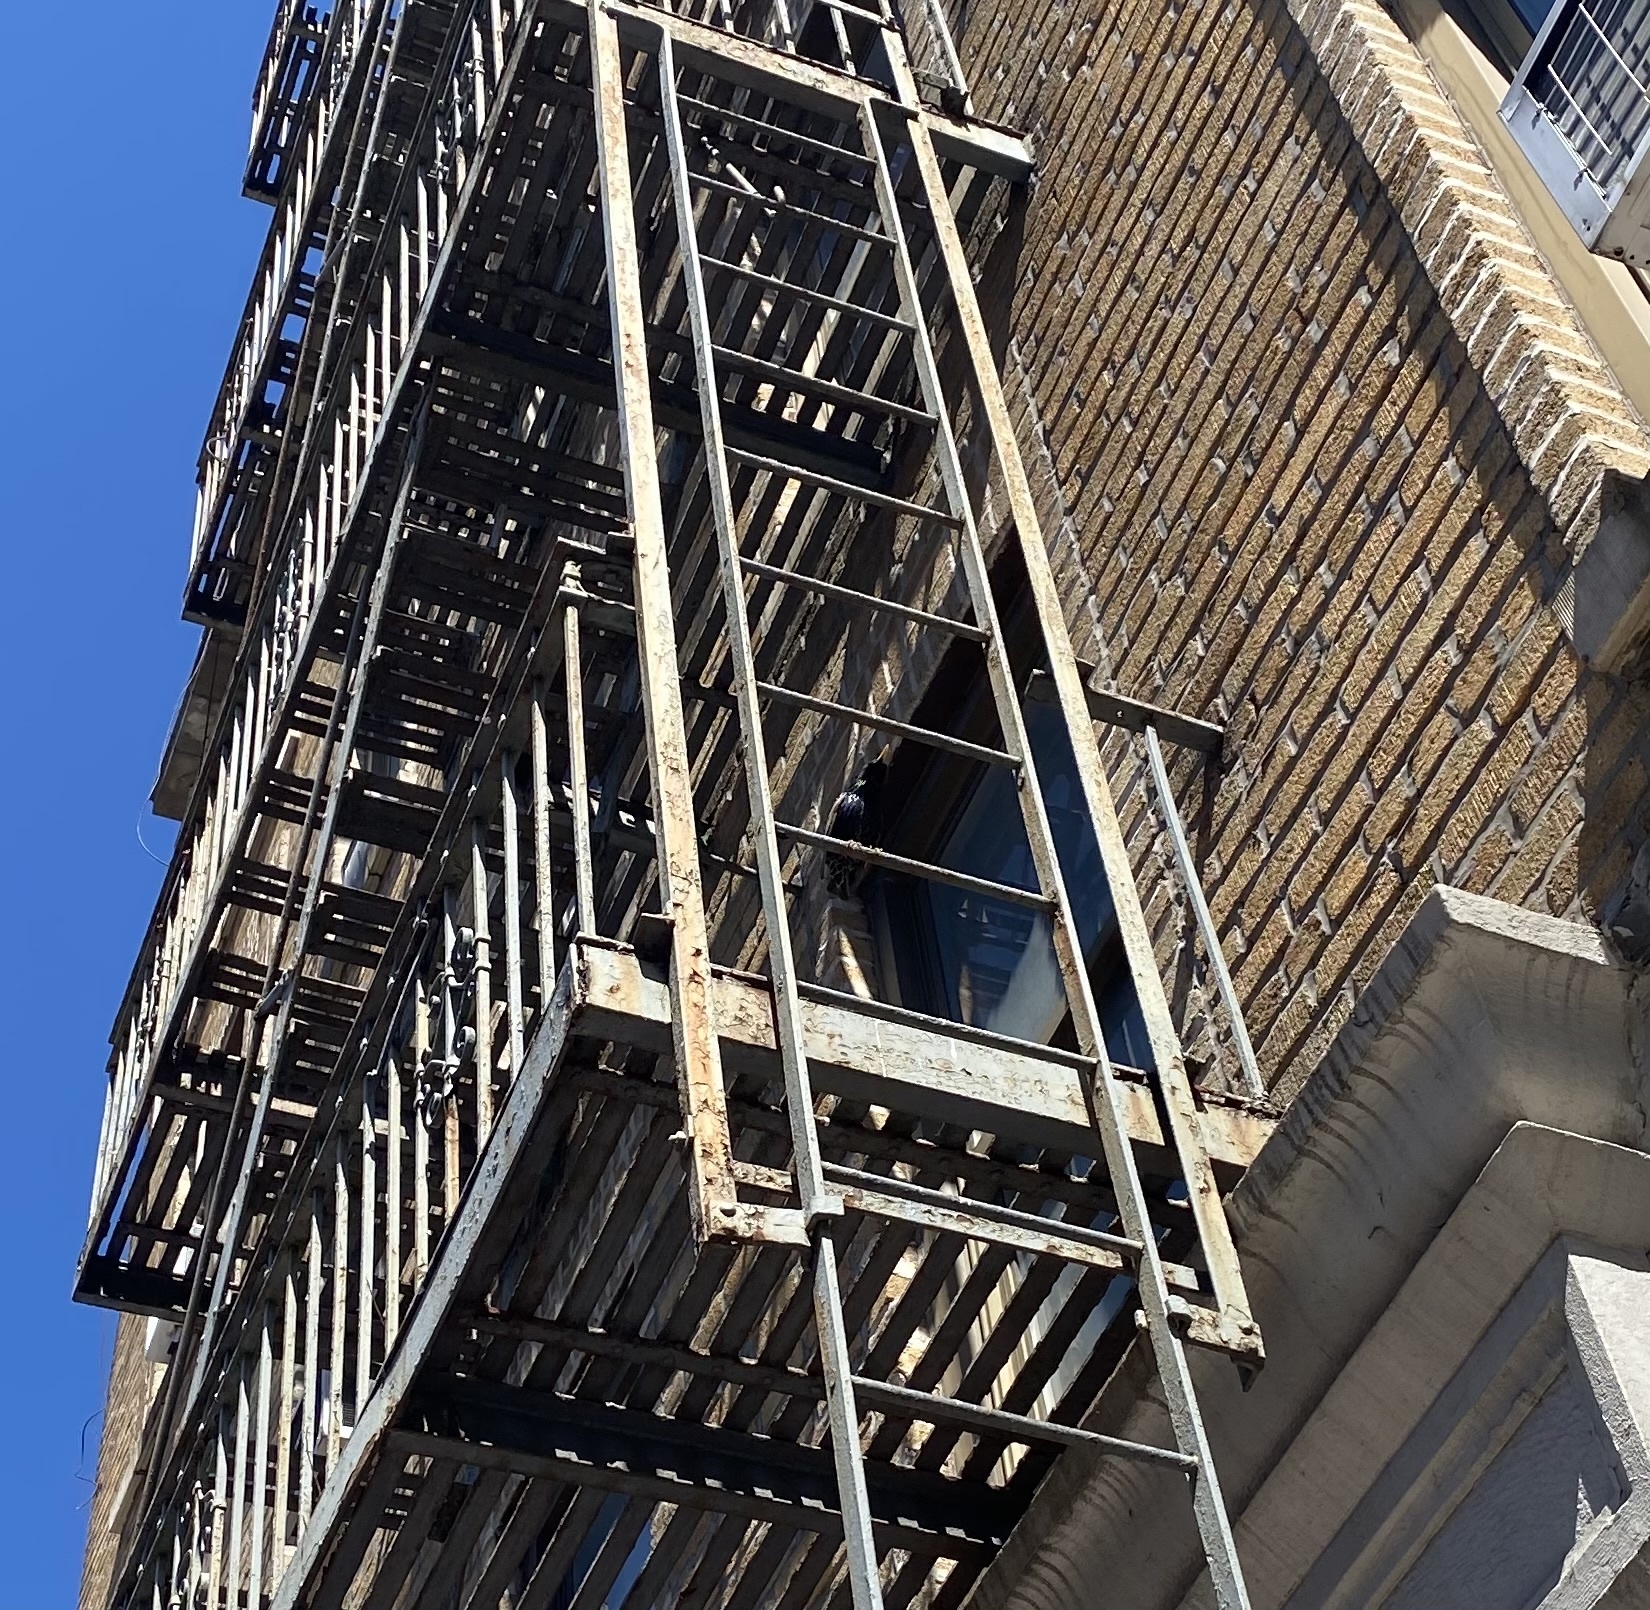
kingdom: Animalia
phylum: Chordata
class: Aves
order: Passeriformes
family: Sturnidae
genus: Sturnus
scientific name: Sturnus vulgaris
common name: Common starling
